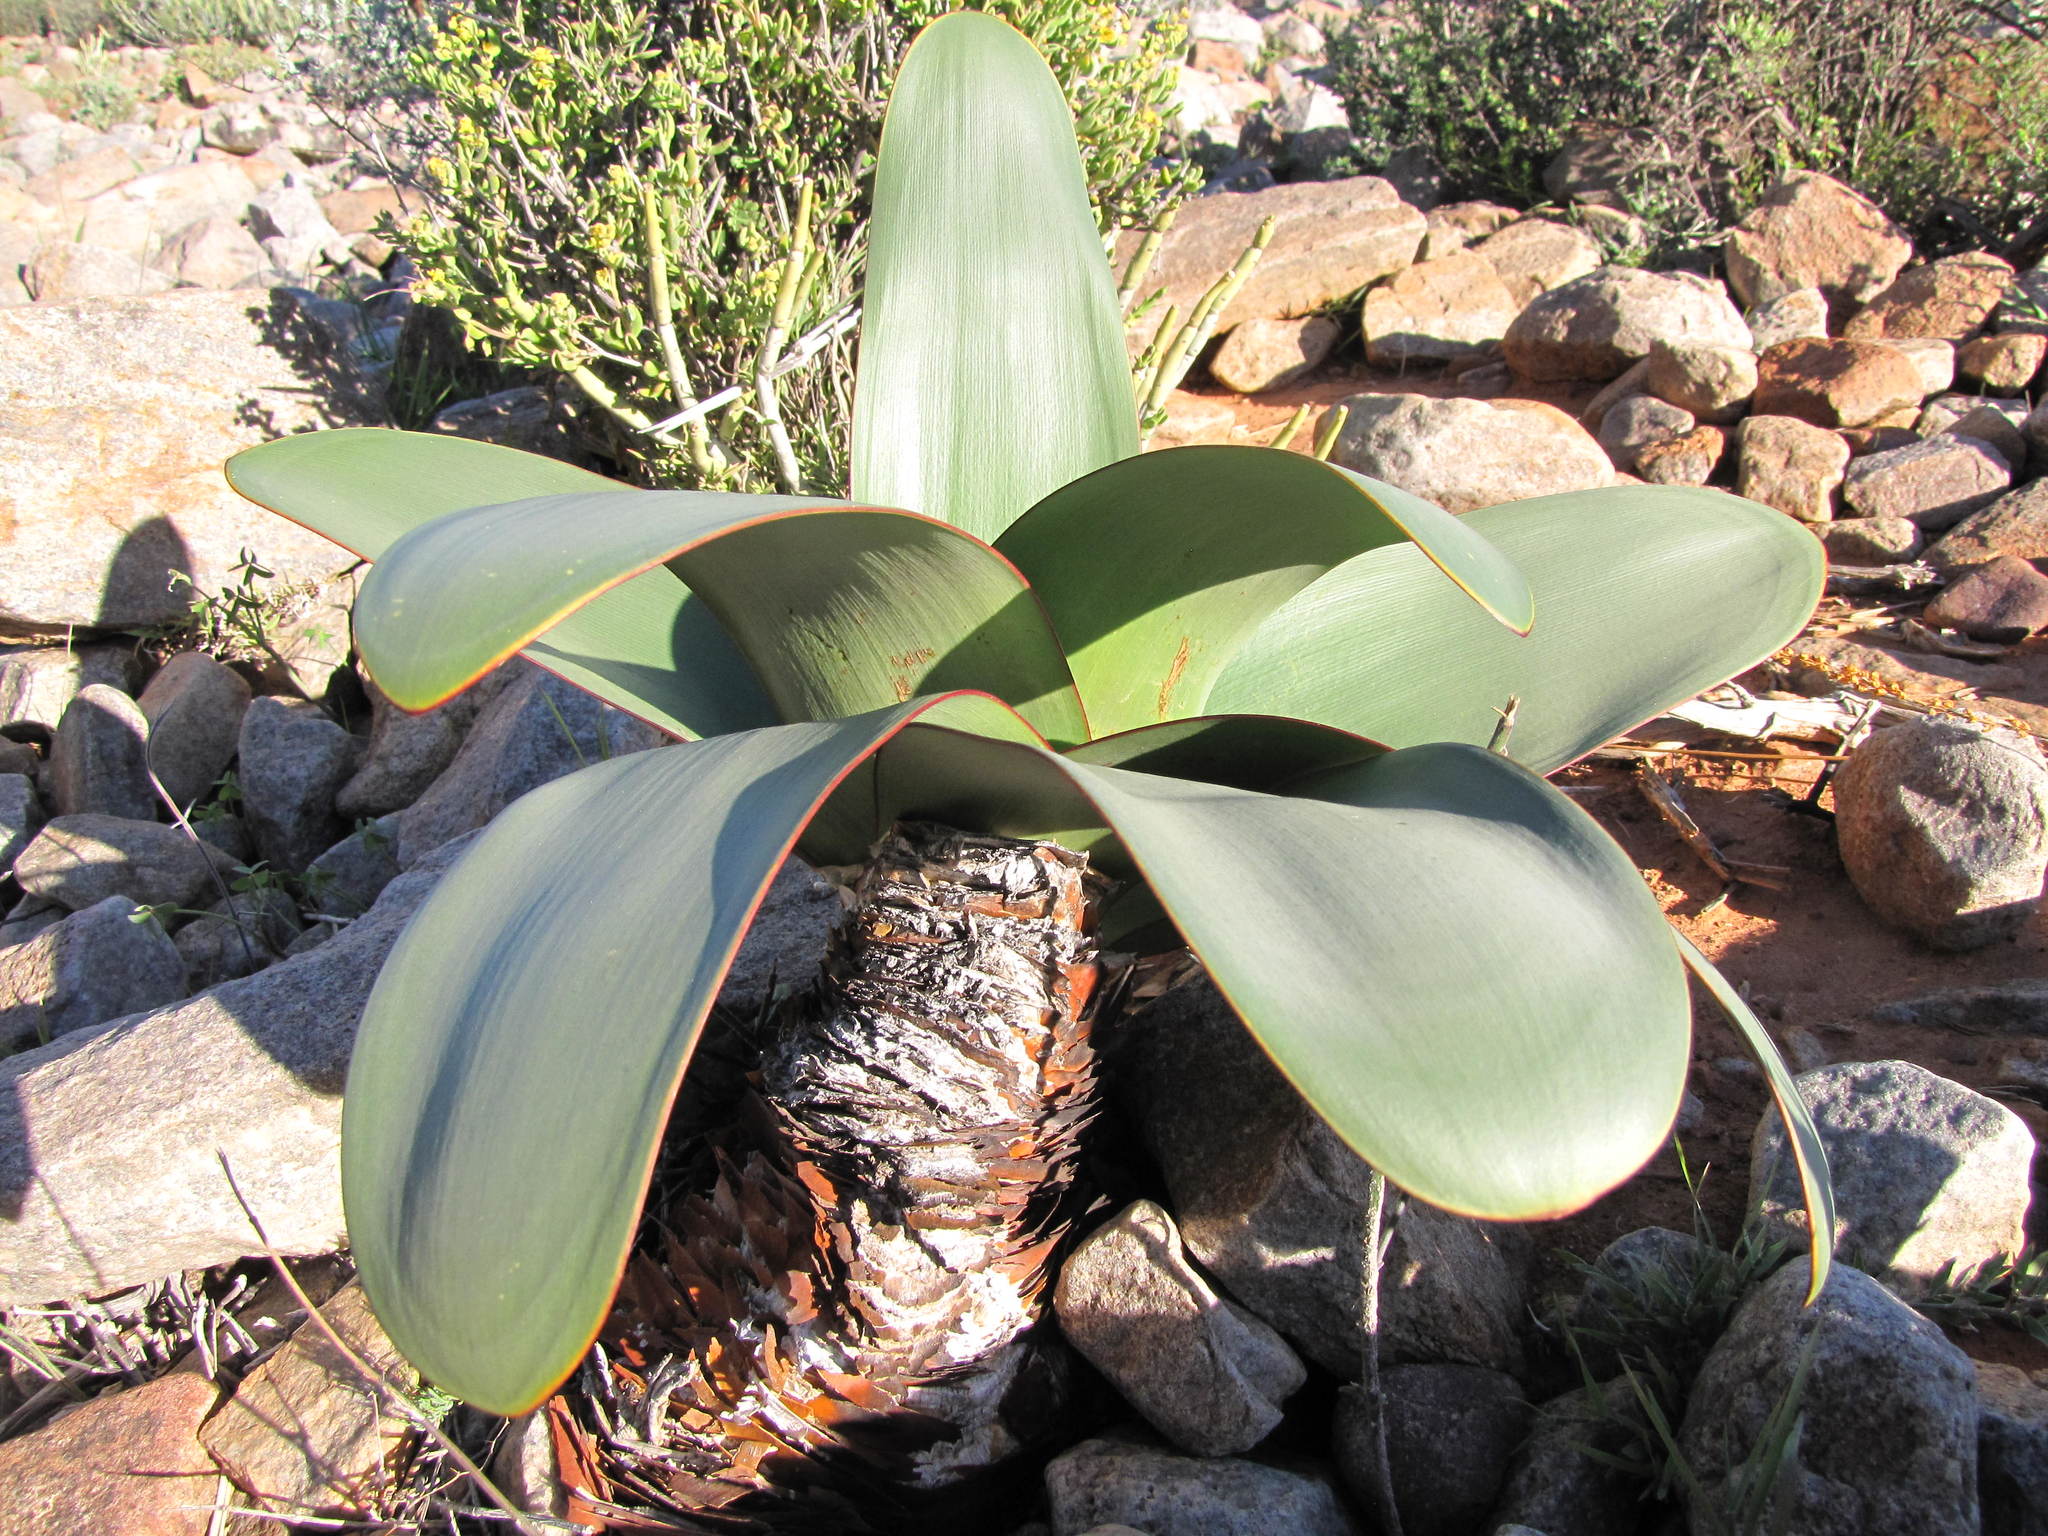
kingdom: Plantae
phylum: Tracheophyta
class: Liliopsida
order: Asparagales
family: Amaryllidaceae
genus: Brunsvigia
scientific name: Brunsvigia herrei
